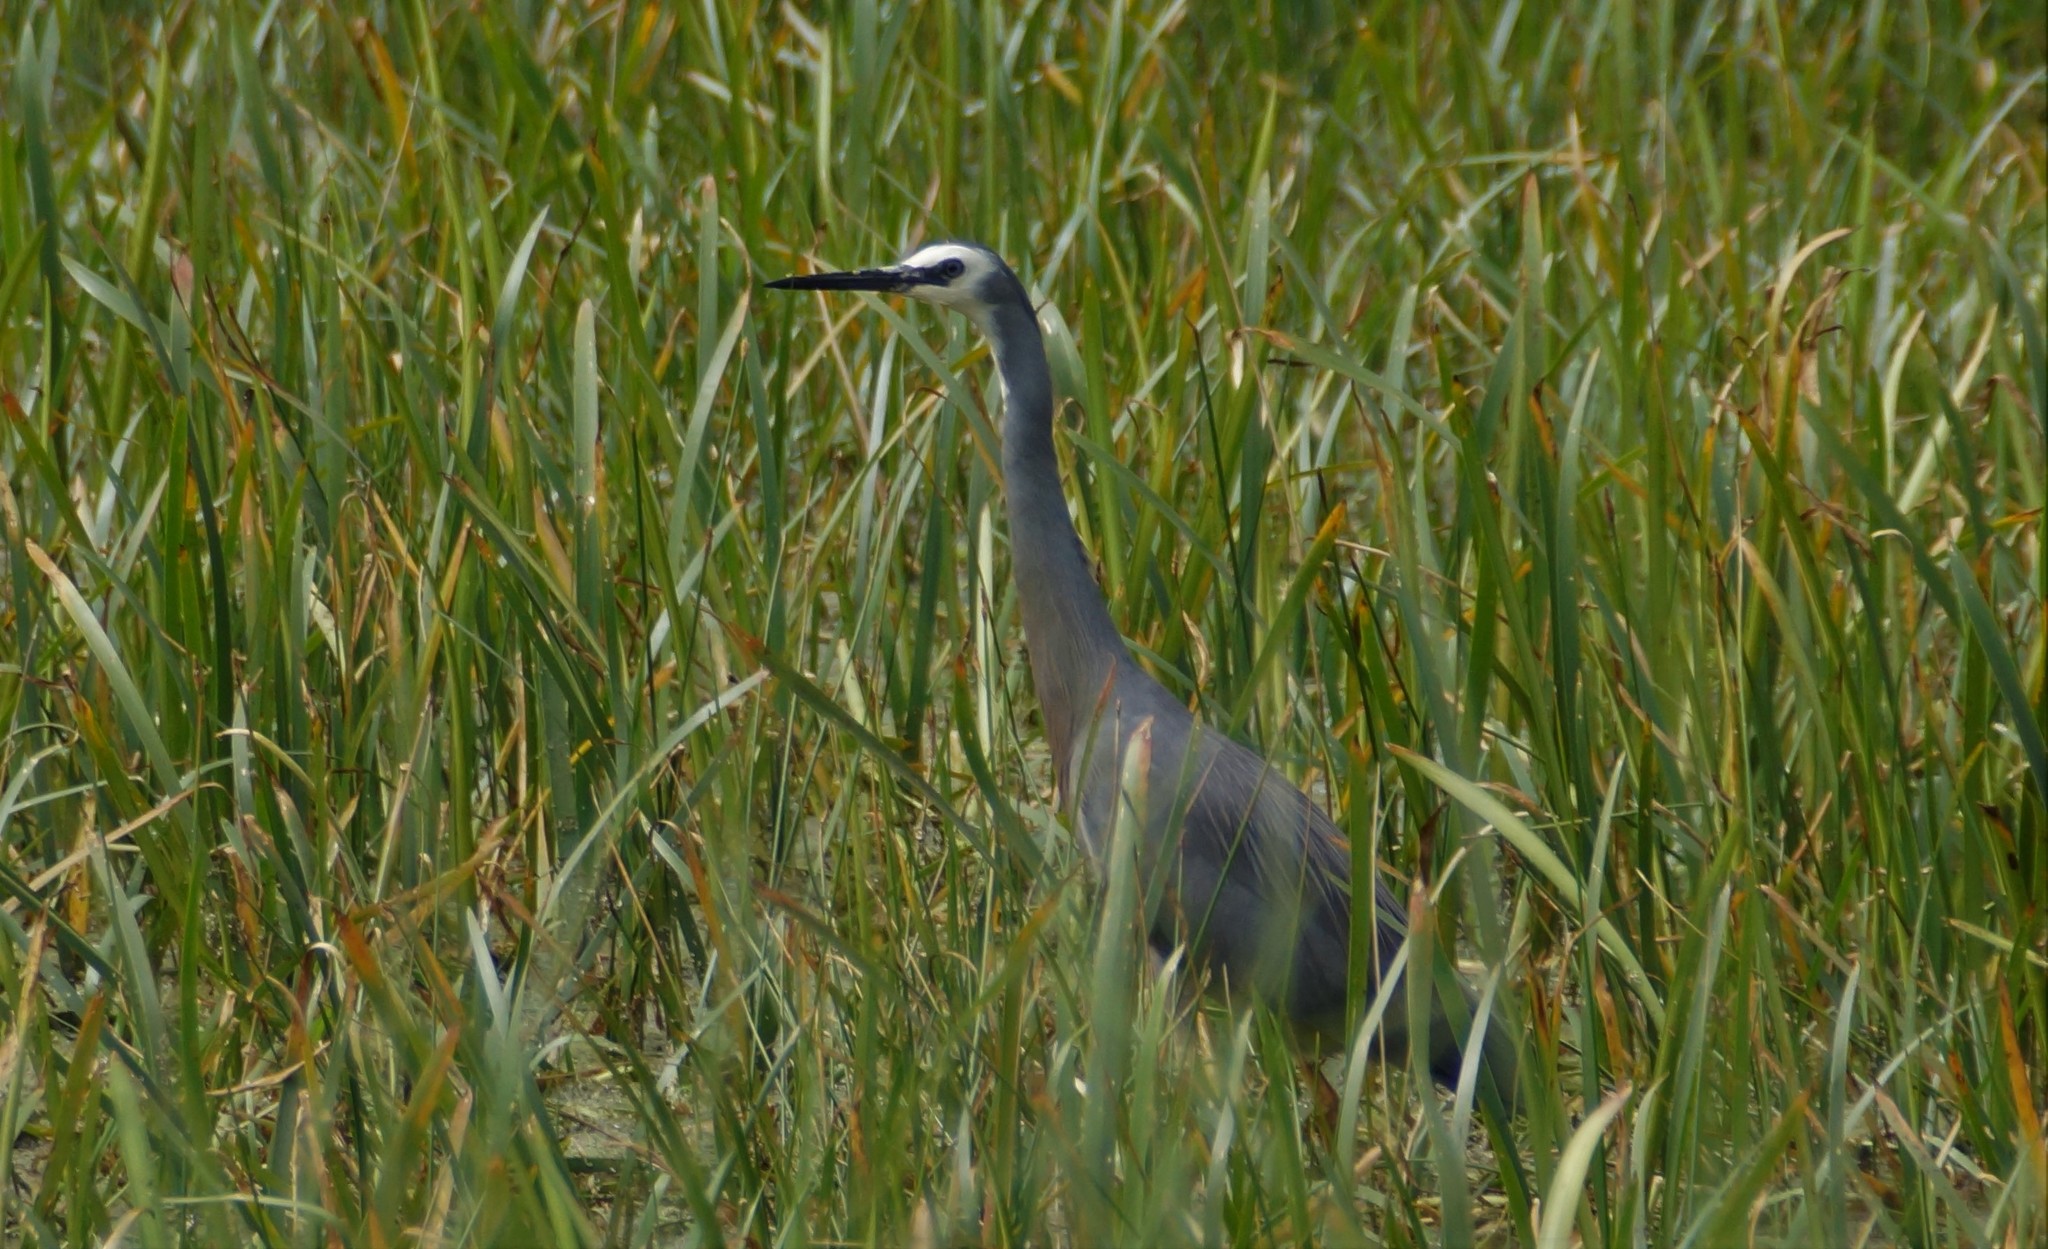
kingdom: Animalia
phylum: Chordata
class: Aves
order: Pelecaniformes
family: Ardeidae
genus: Egretta
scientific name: Egretta novaehollandiae
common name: White-faced heron
